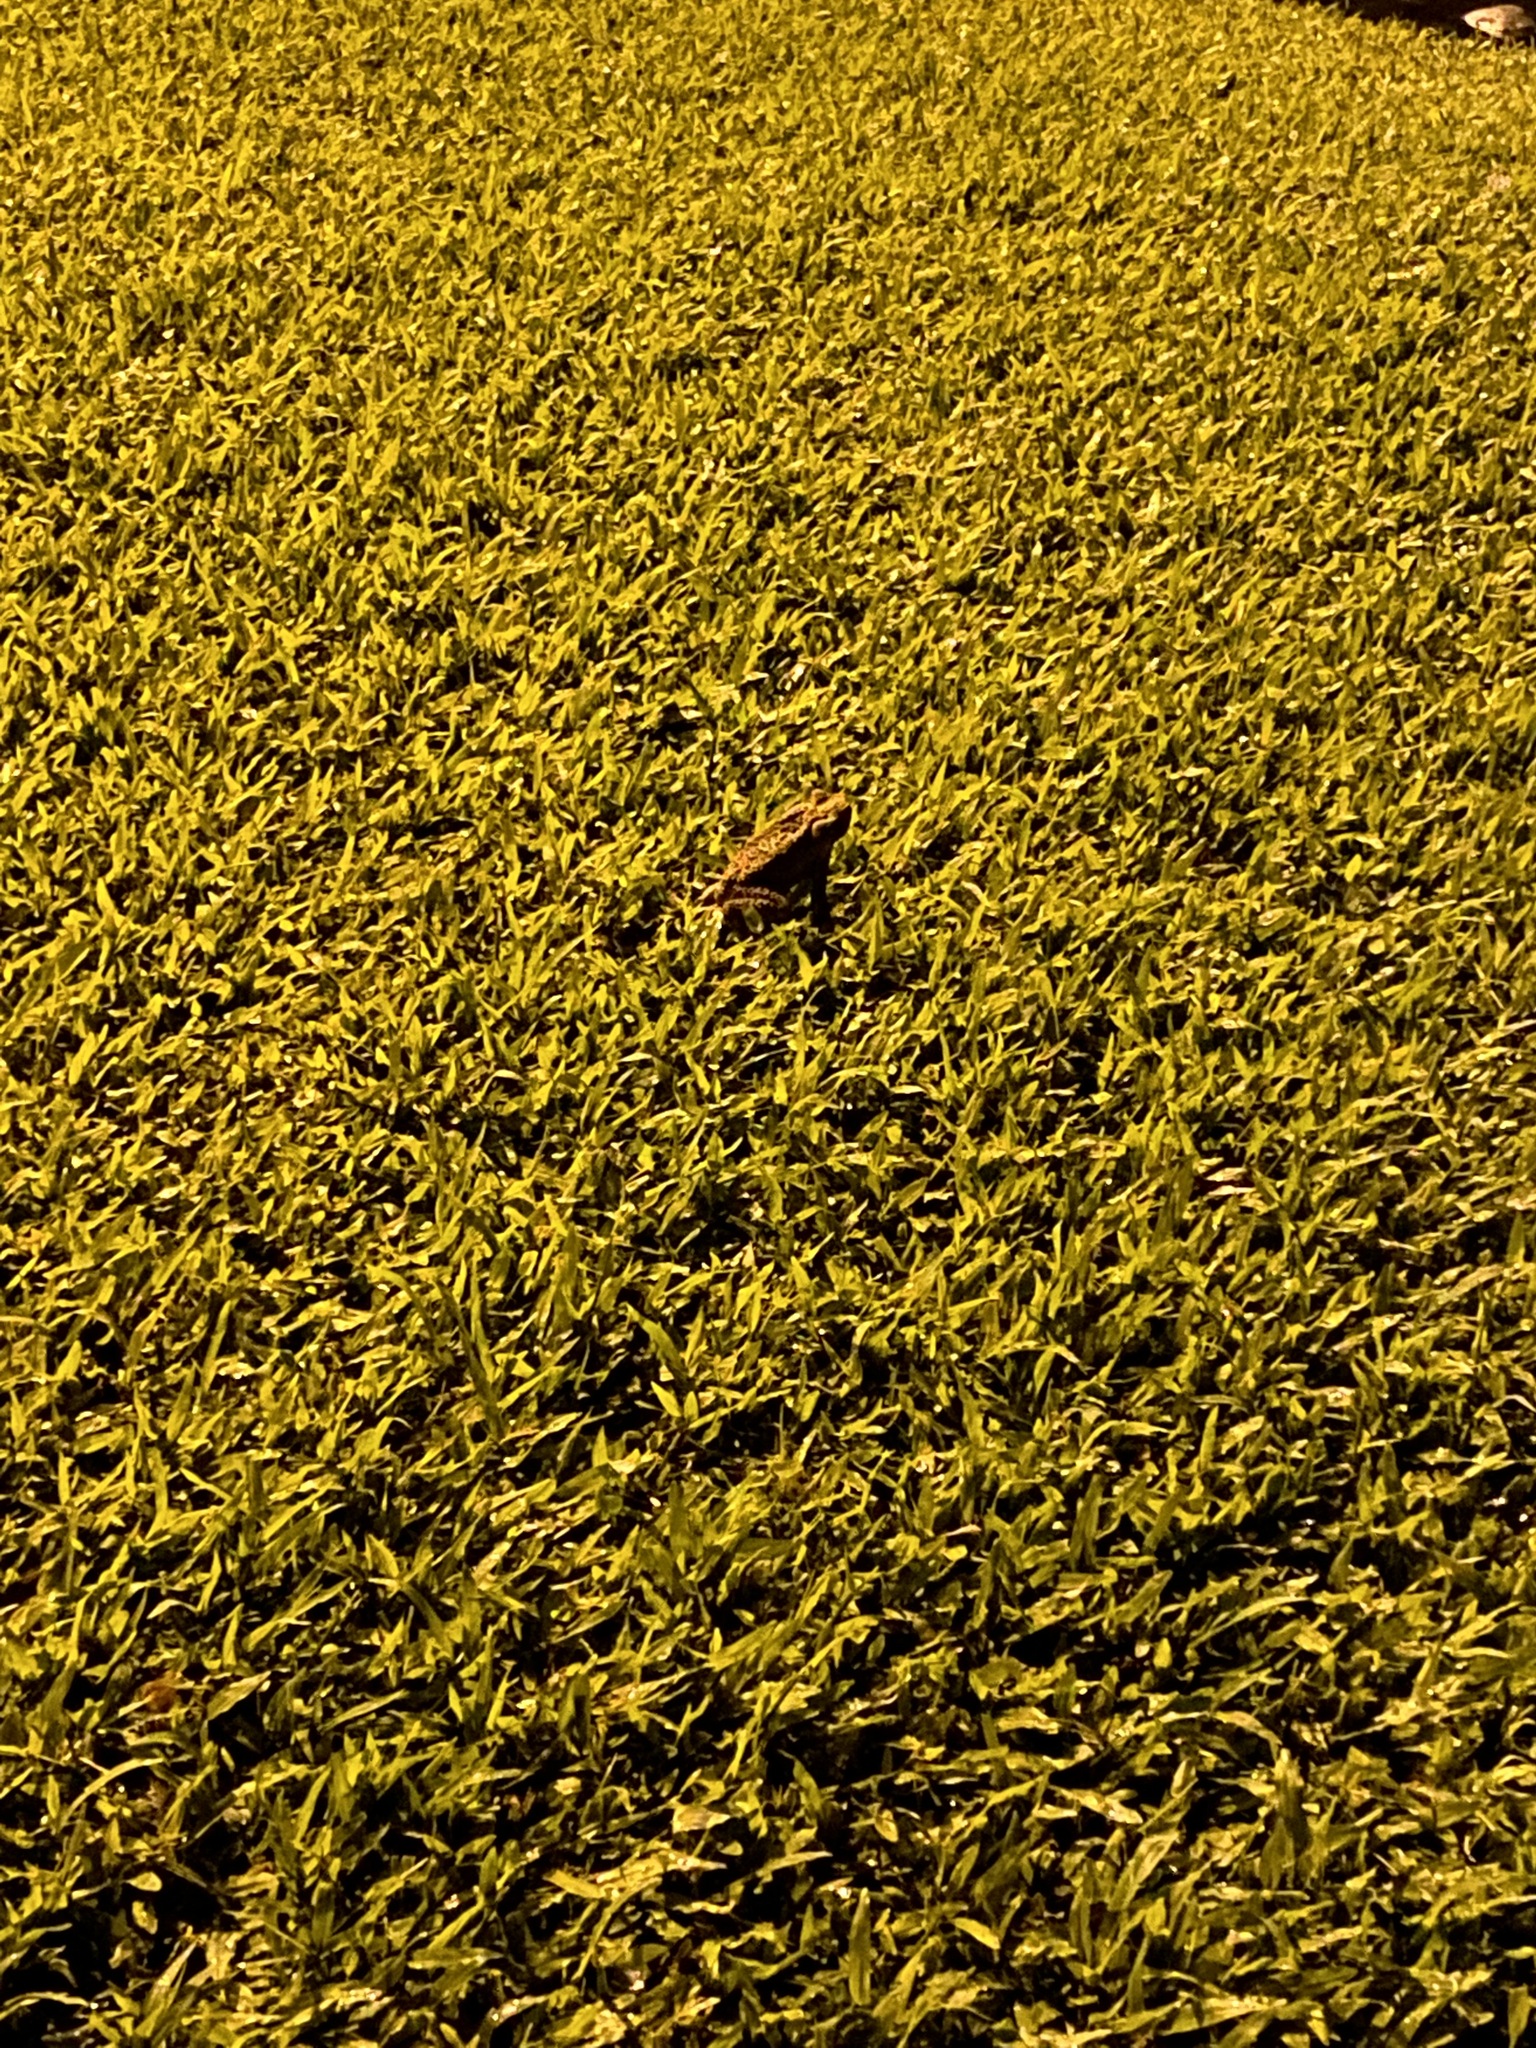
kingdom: Animalia
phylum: Chordata
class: Amphibia
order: Anura
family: Bufonidae
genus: Rhinella
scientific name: Rhinella marina
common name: Cane toad
